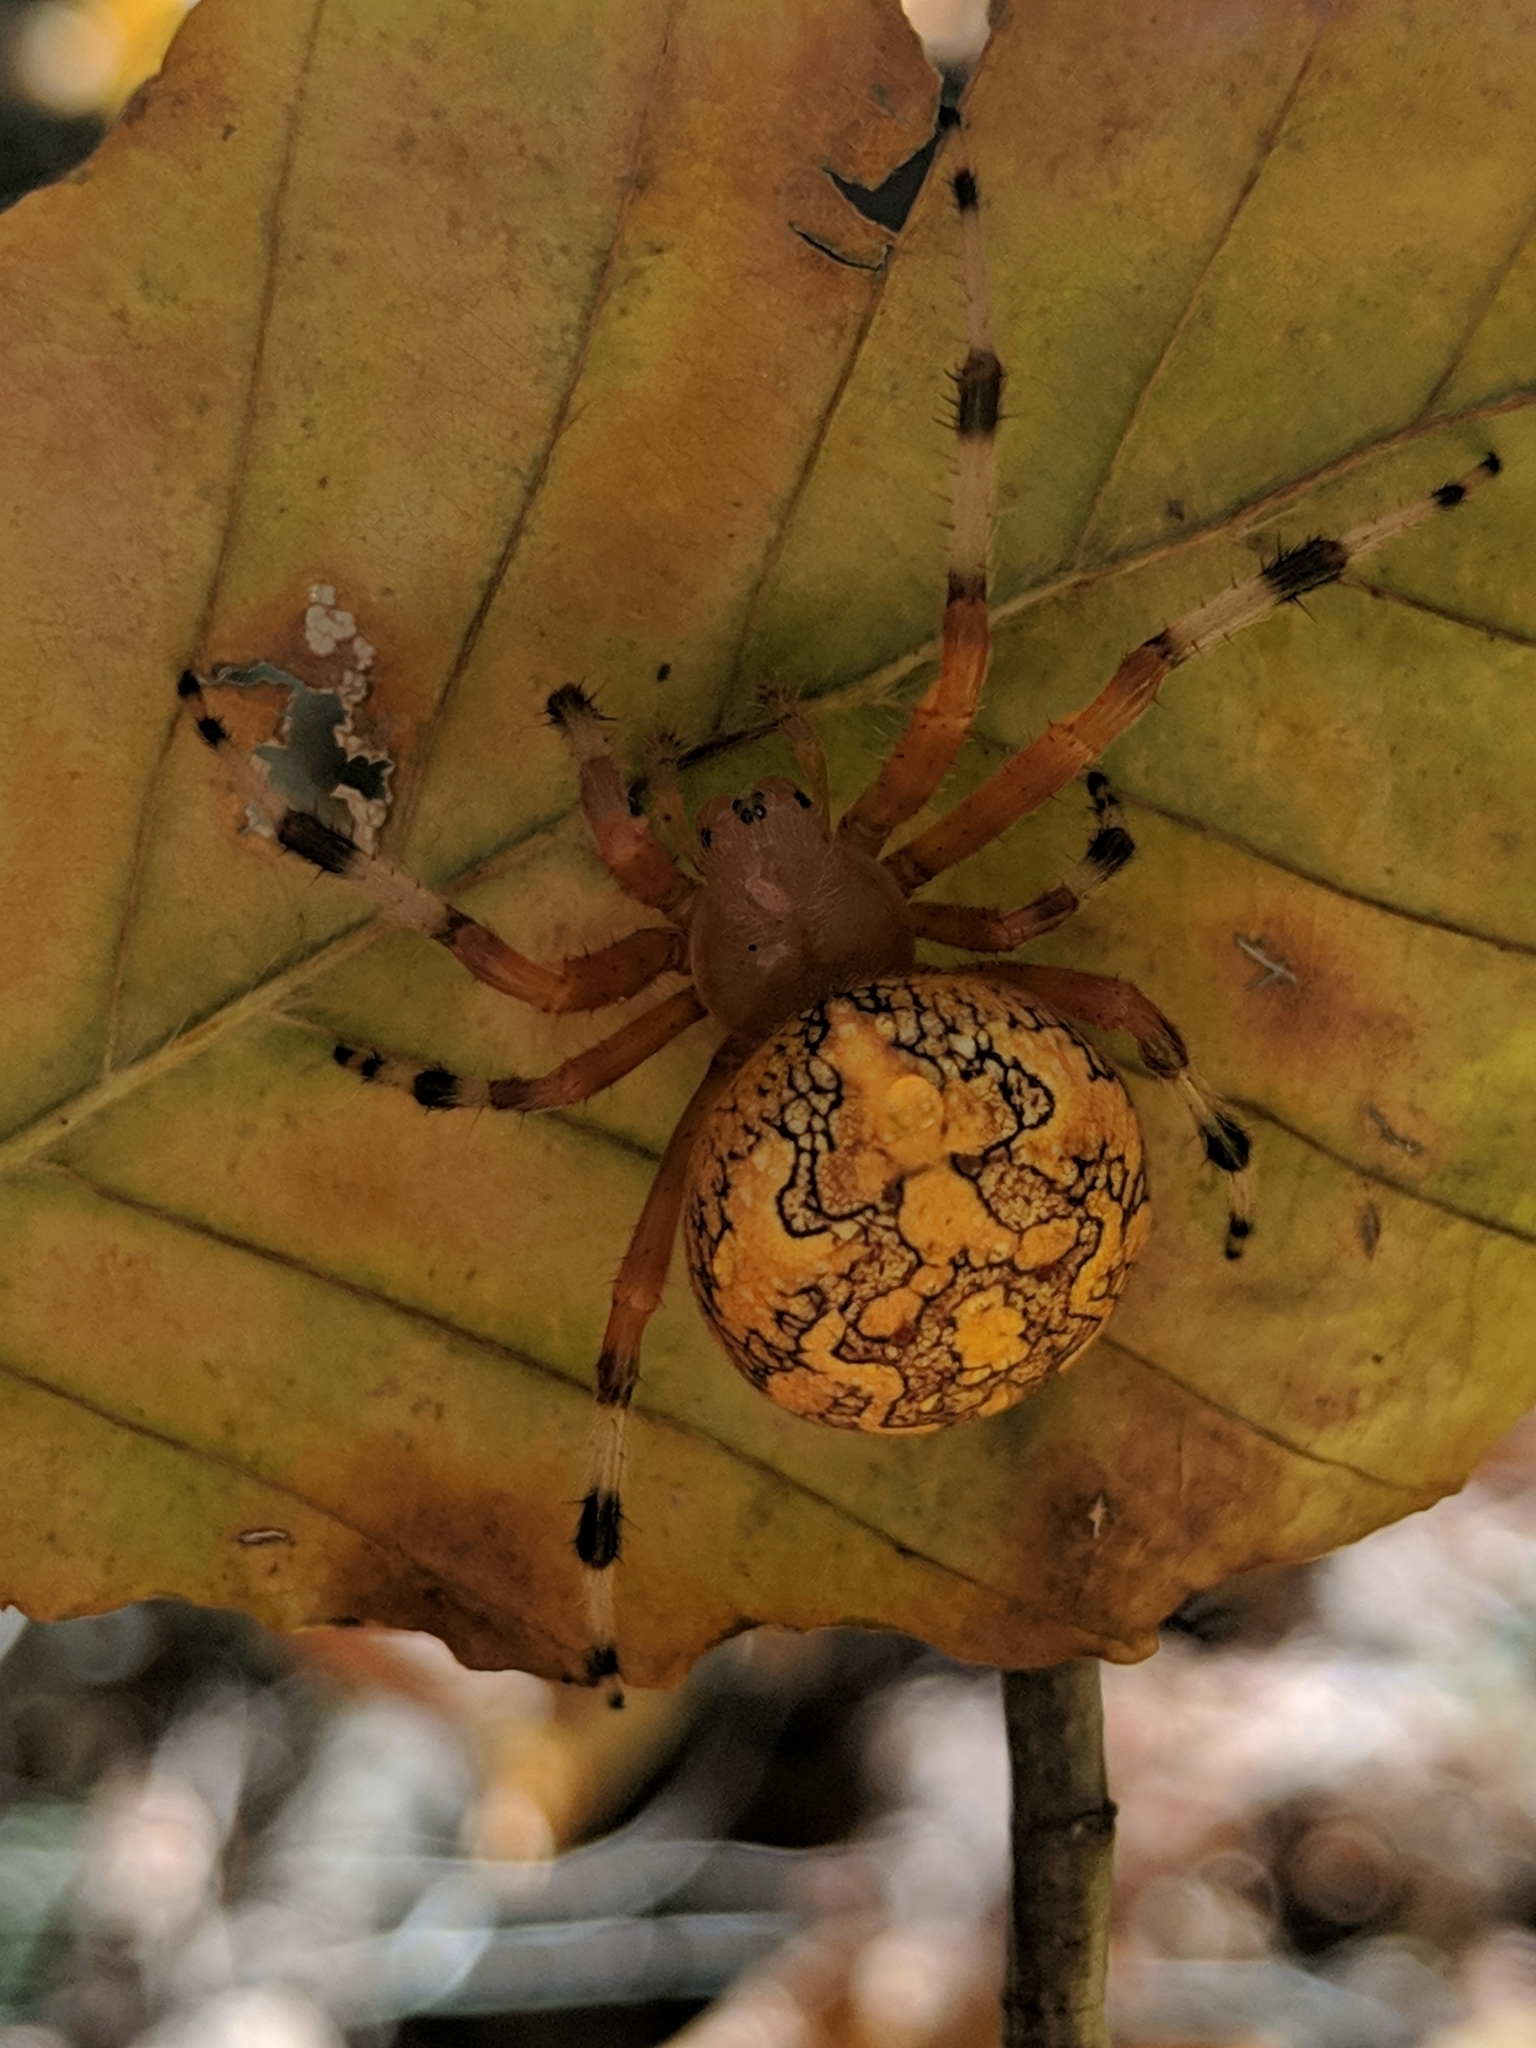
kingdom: Animalia
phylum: Arthropoda
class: Arachnida
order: Araneae
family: Araneidae
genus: Araneus
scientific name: Araneus marmoreus
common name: Marbled orbweaver
